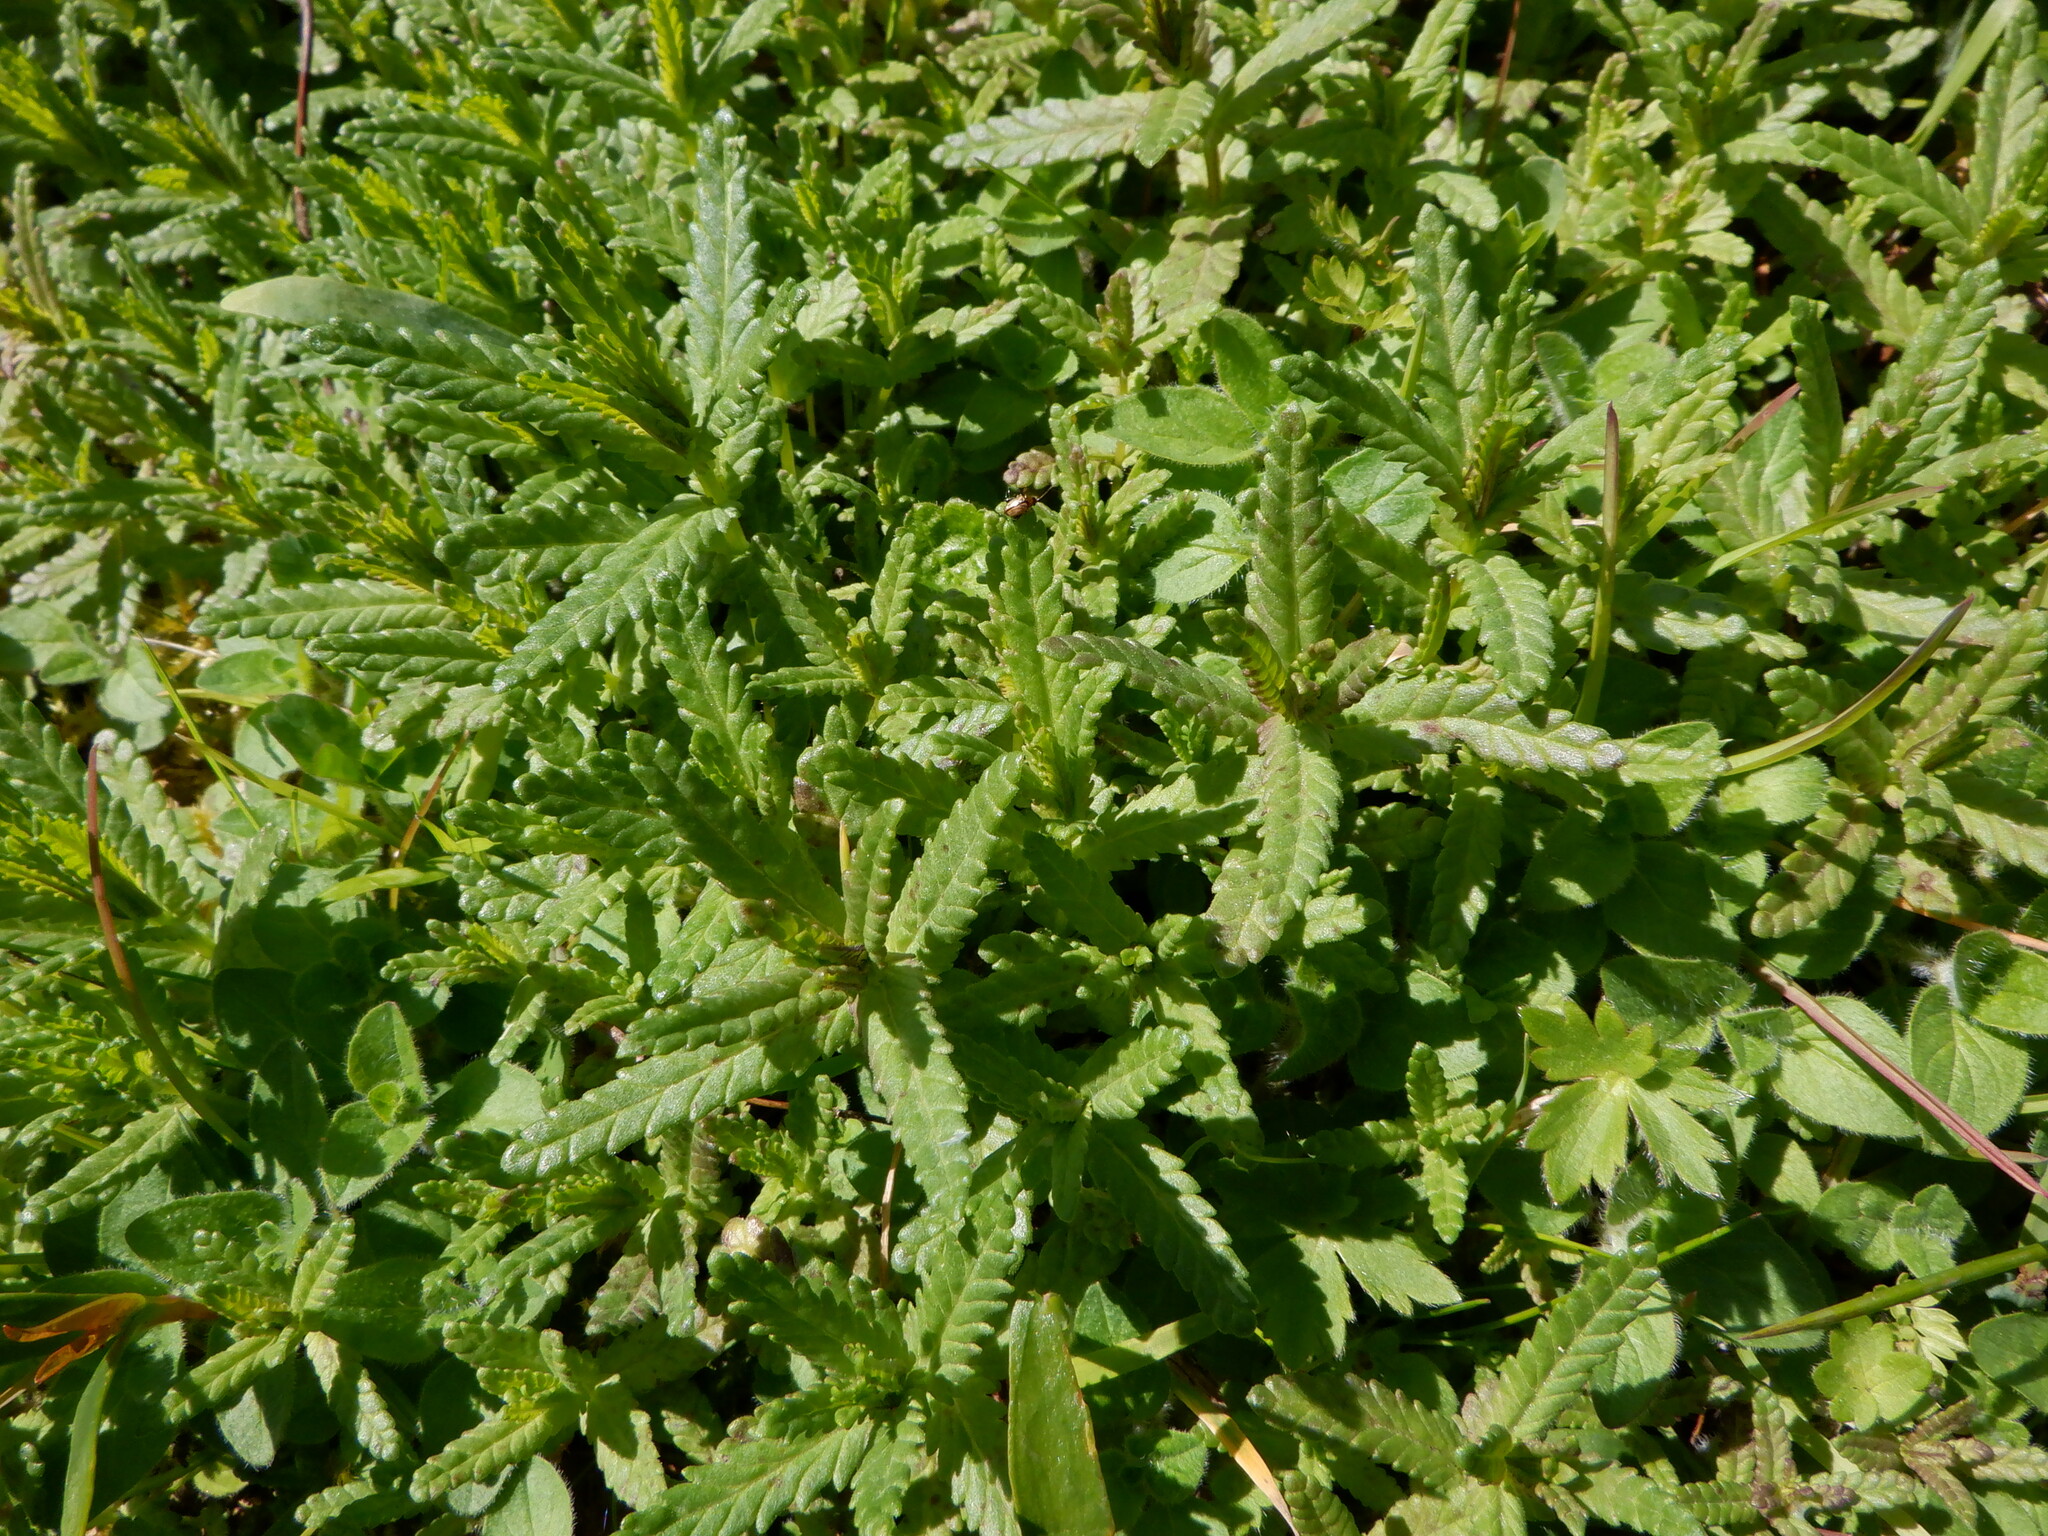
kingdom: Plantae
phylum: Tracheophyta
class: Magnoliopsida
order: Lamiales
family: Orobanchaceae
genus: Rhinanthus
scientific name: Rhinanthus minor
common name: Yellow-rattle
